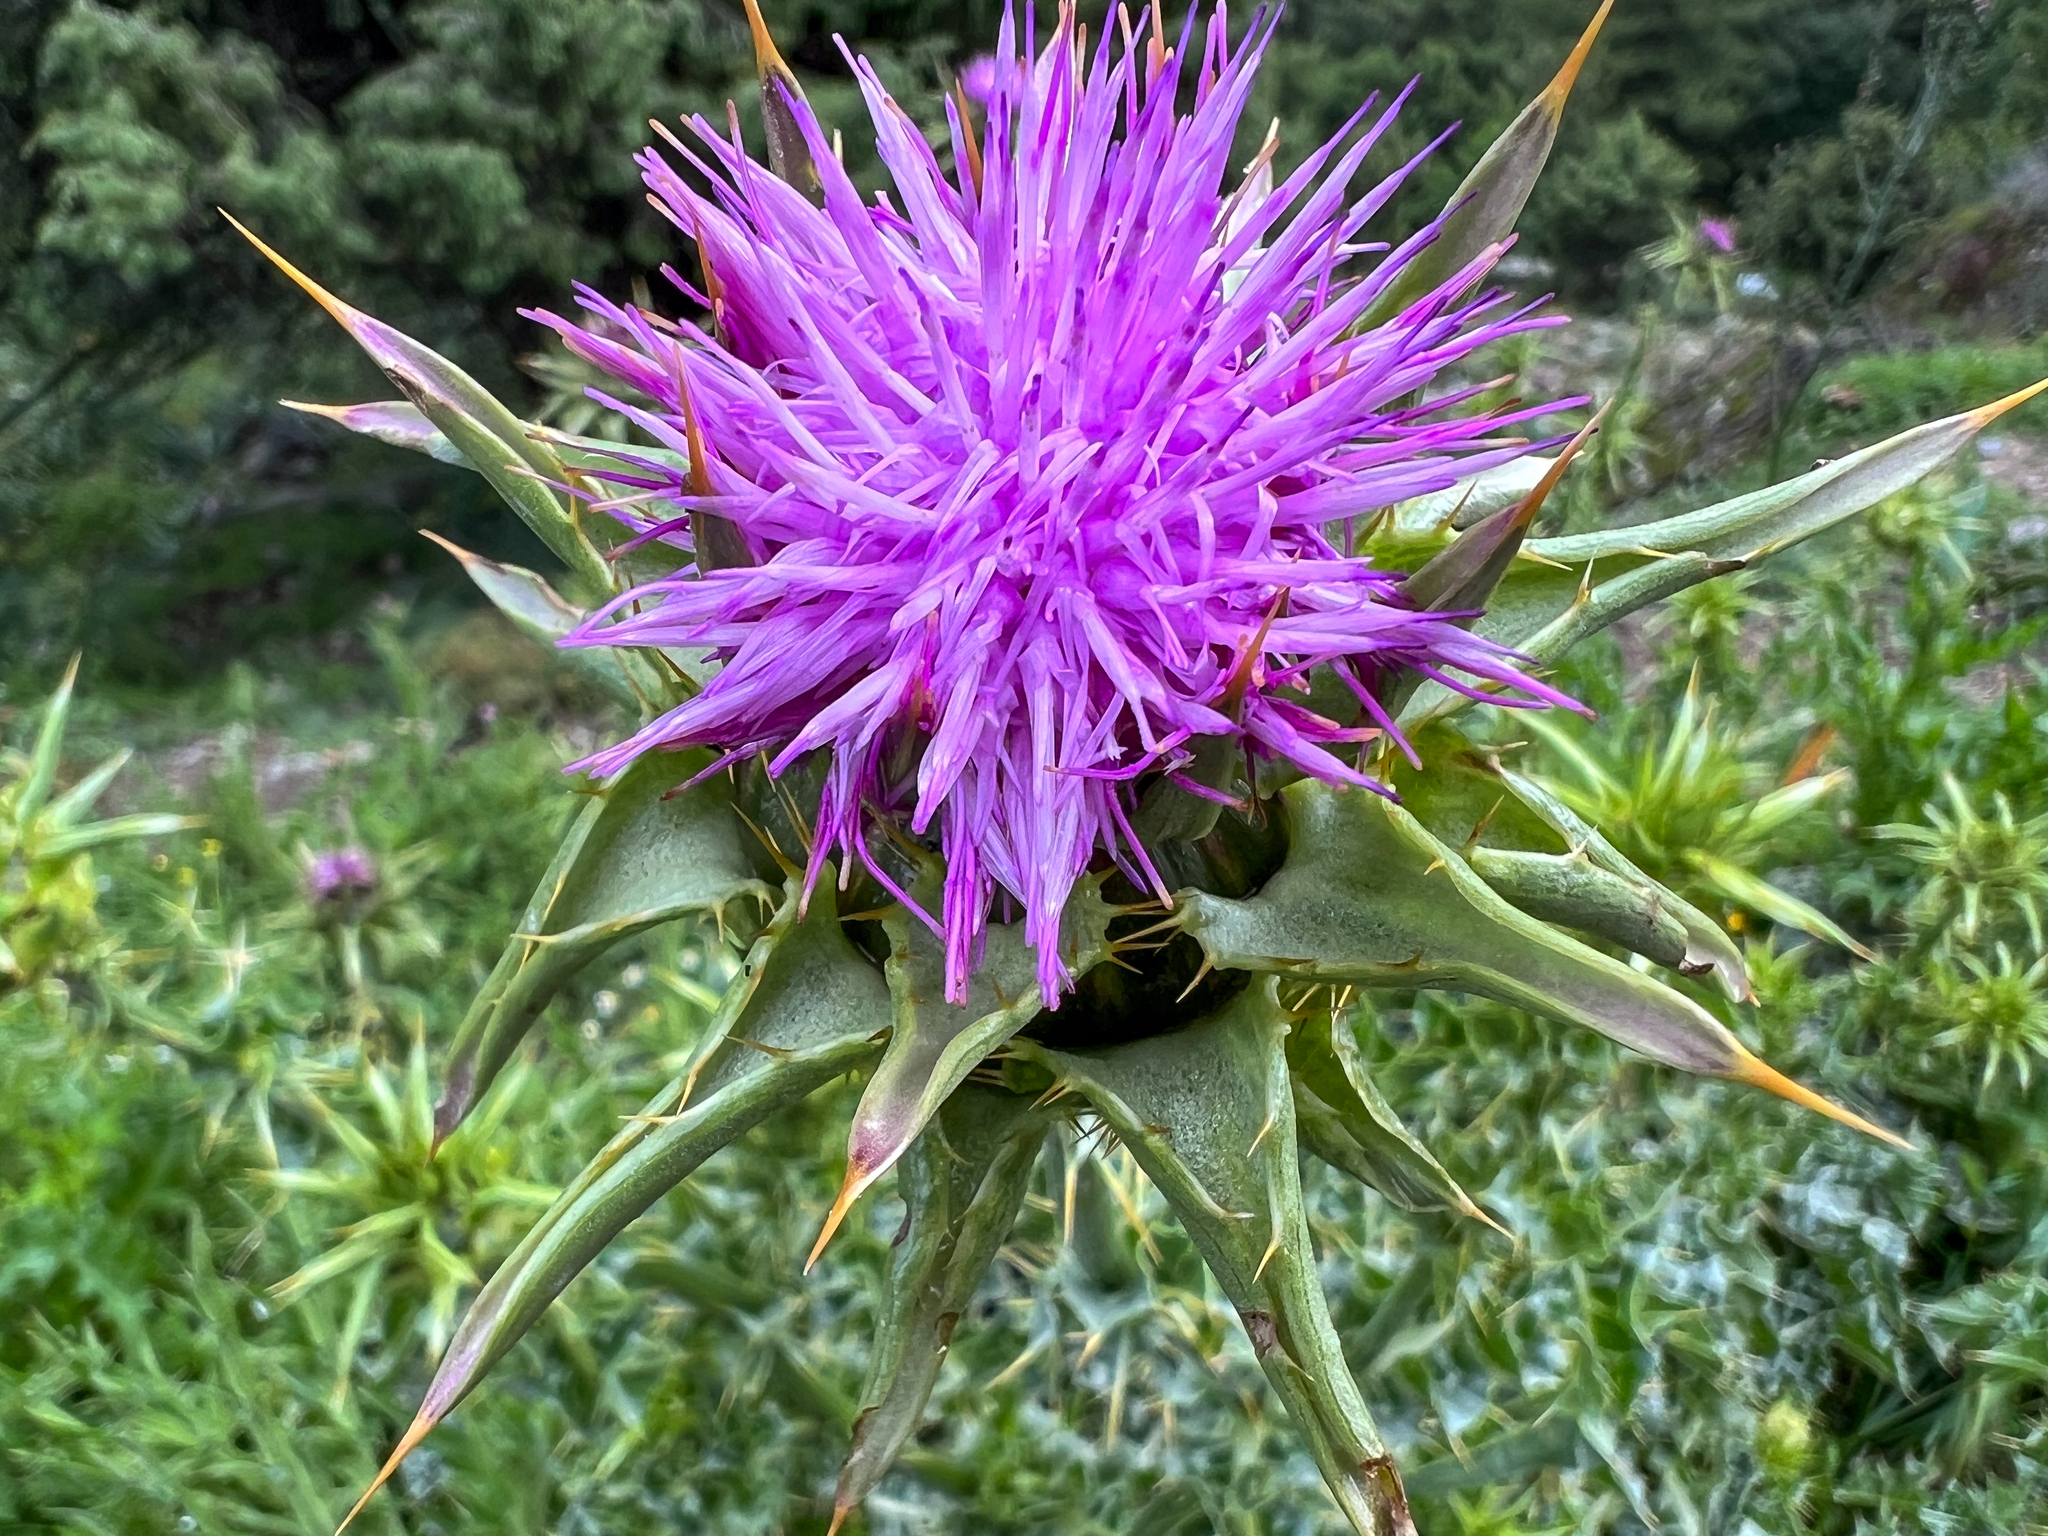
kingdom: Plantae
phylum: Tracheophyta
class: Magnoliopsida
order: Asterales
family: Asteraceae
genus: Silybum
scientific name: Silybum marianum
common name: Milk thistle
